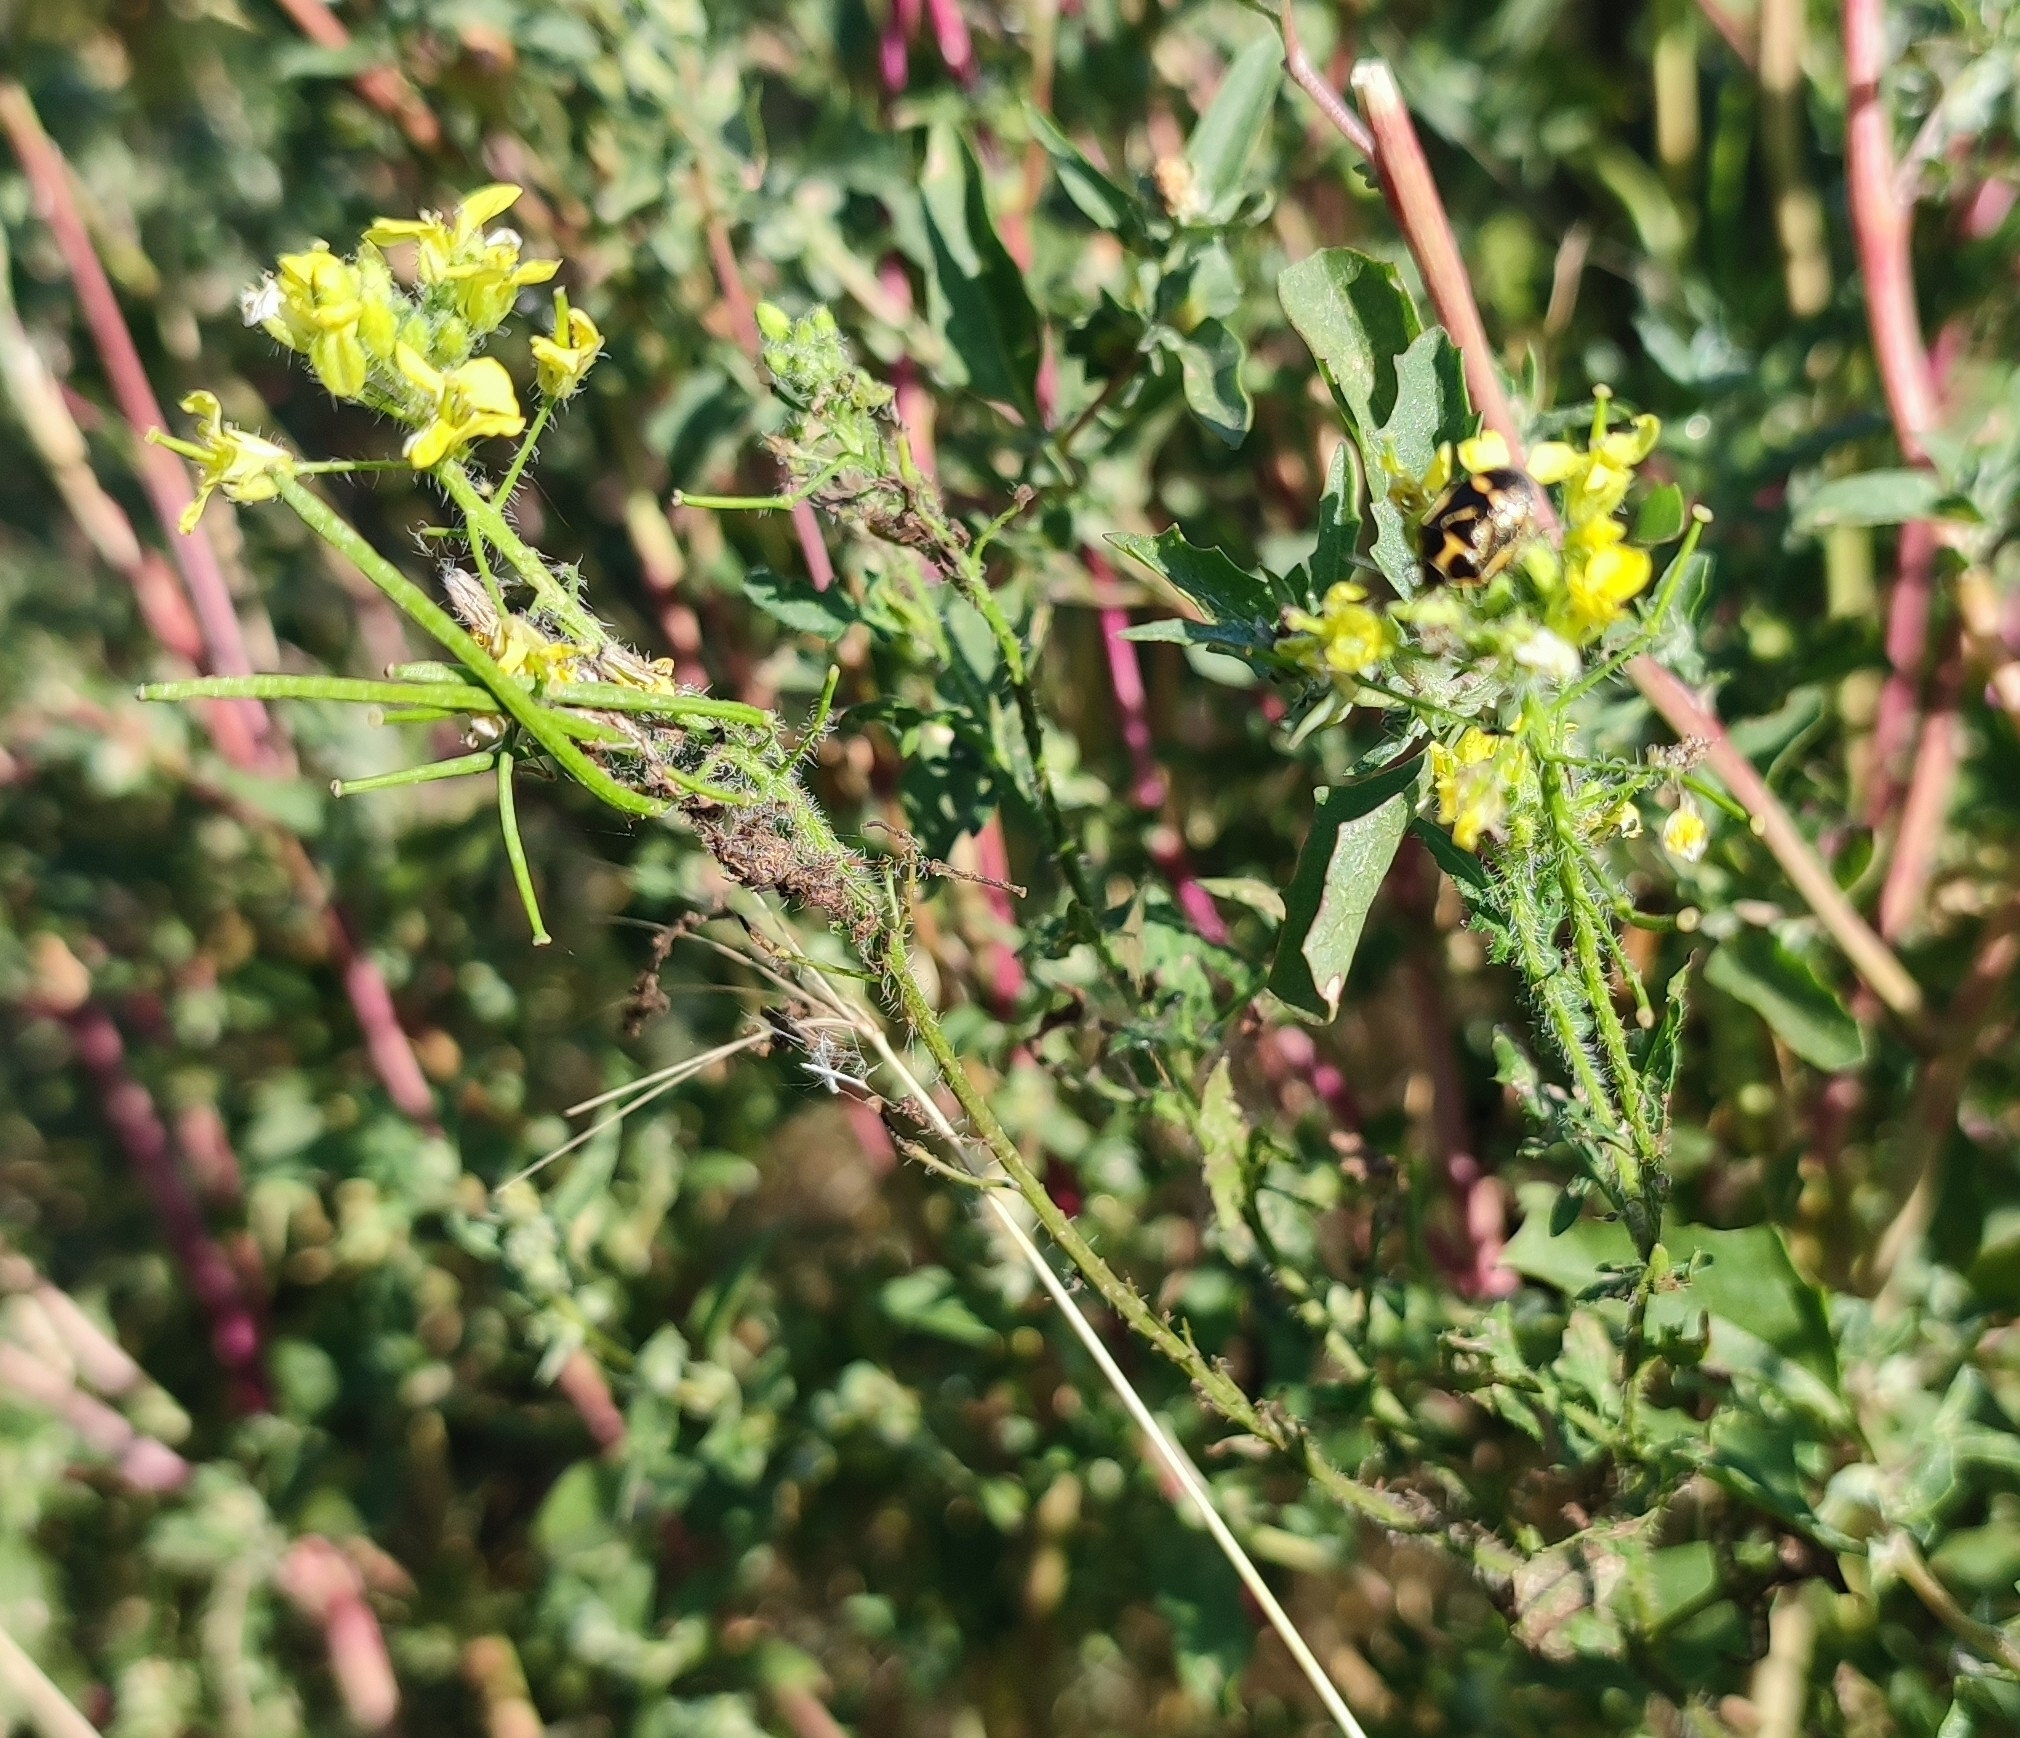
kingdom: Plantae
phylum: Tracheophyta
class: Magnoliopsida
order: Brassicales
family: Brassicaceae
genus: Sisymbrium
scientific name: Sisymbrium loeselii
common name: False london-rocket
